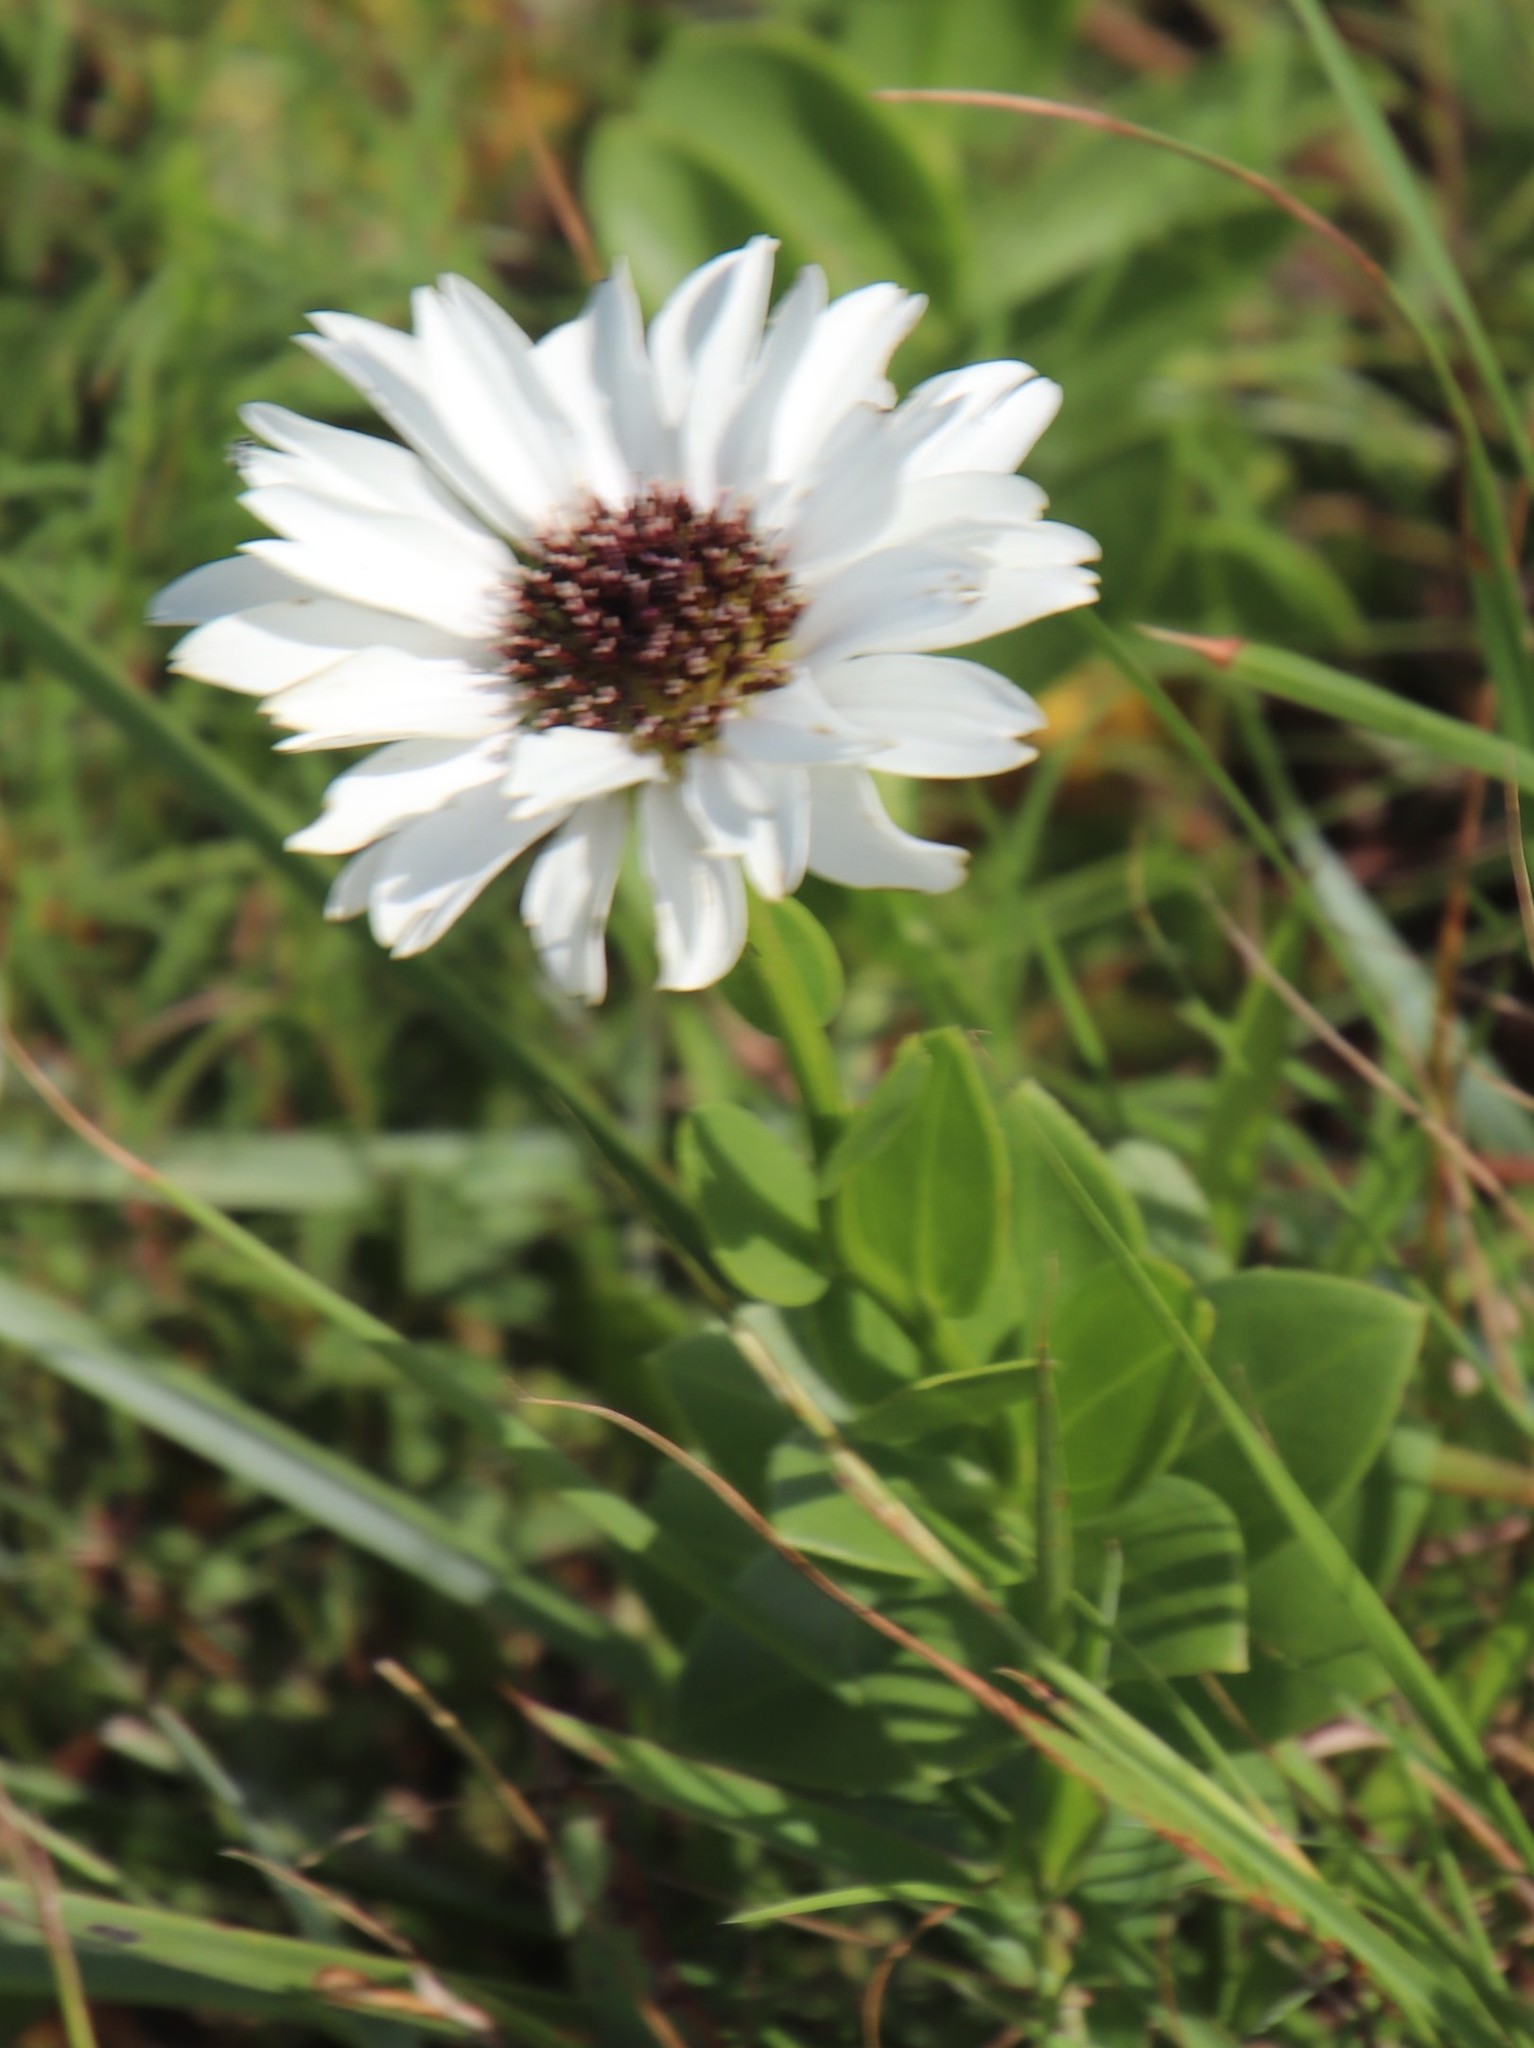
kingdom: Plantae
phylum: Tracheophyta
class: Magnoliopsida
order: Asterales
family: Asteraceae
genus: Callilepis
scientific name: Callilepis laureola
